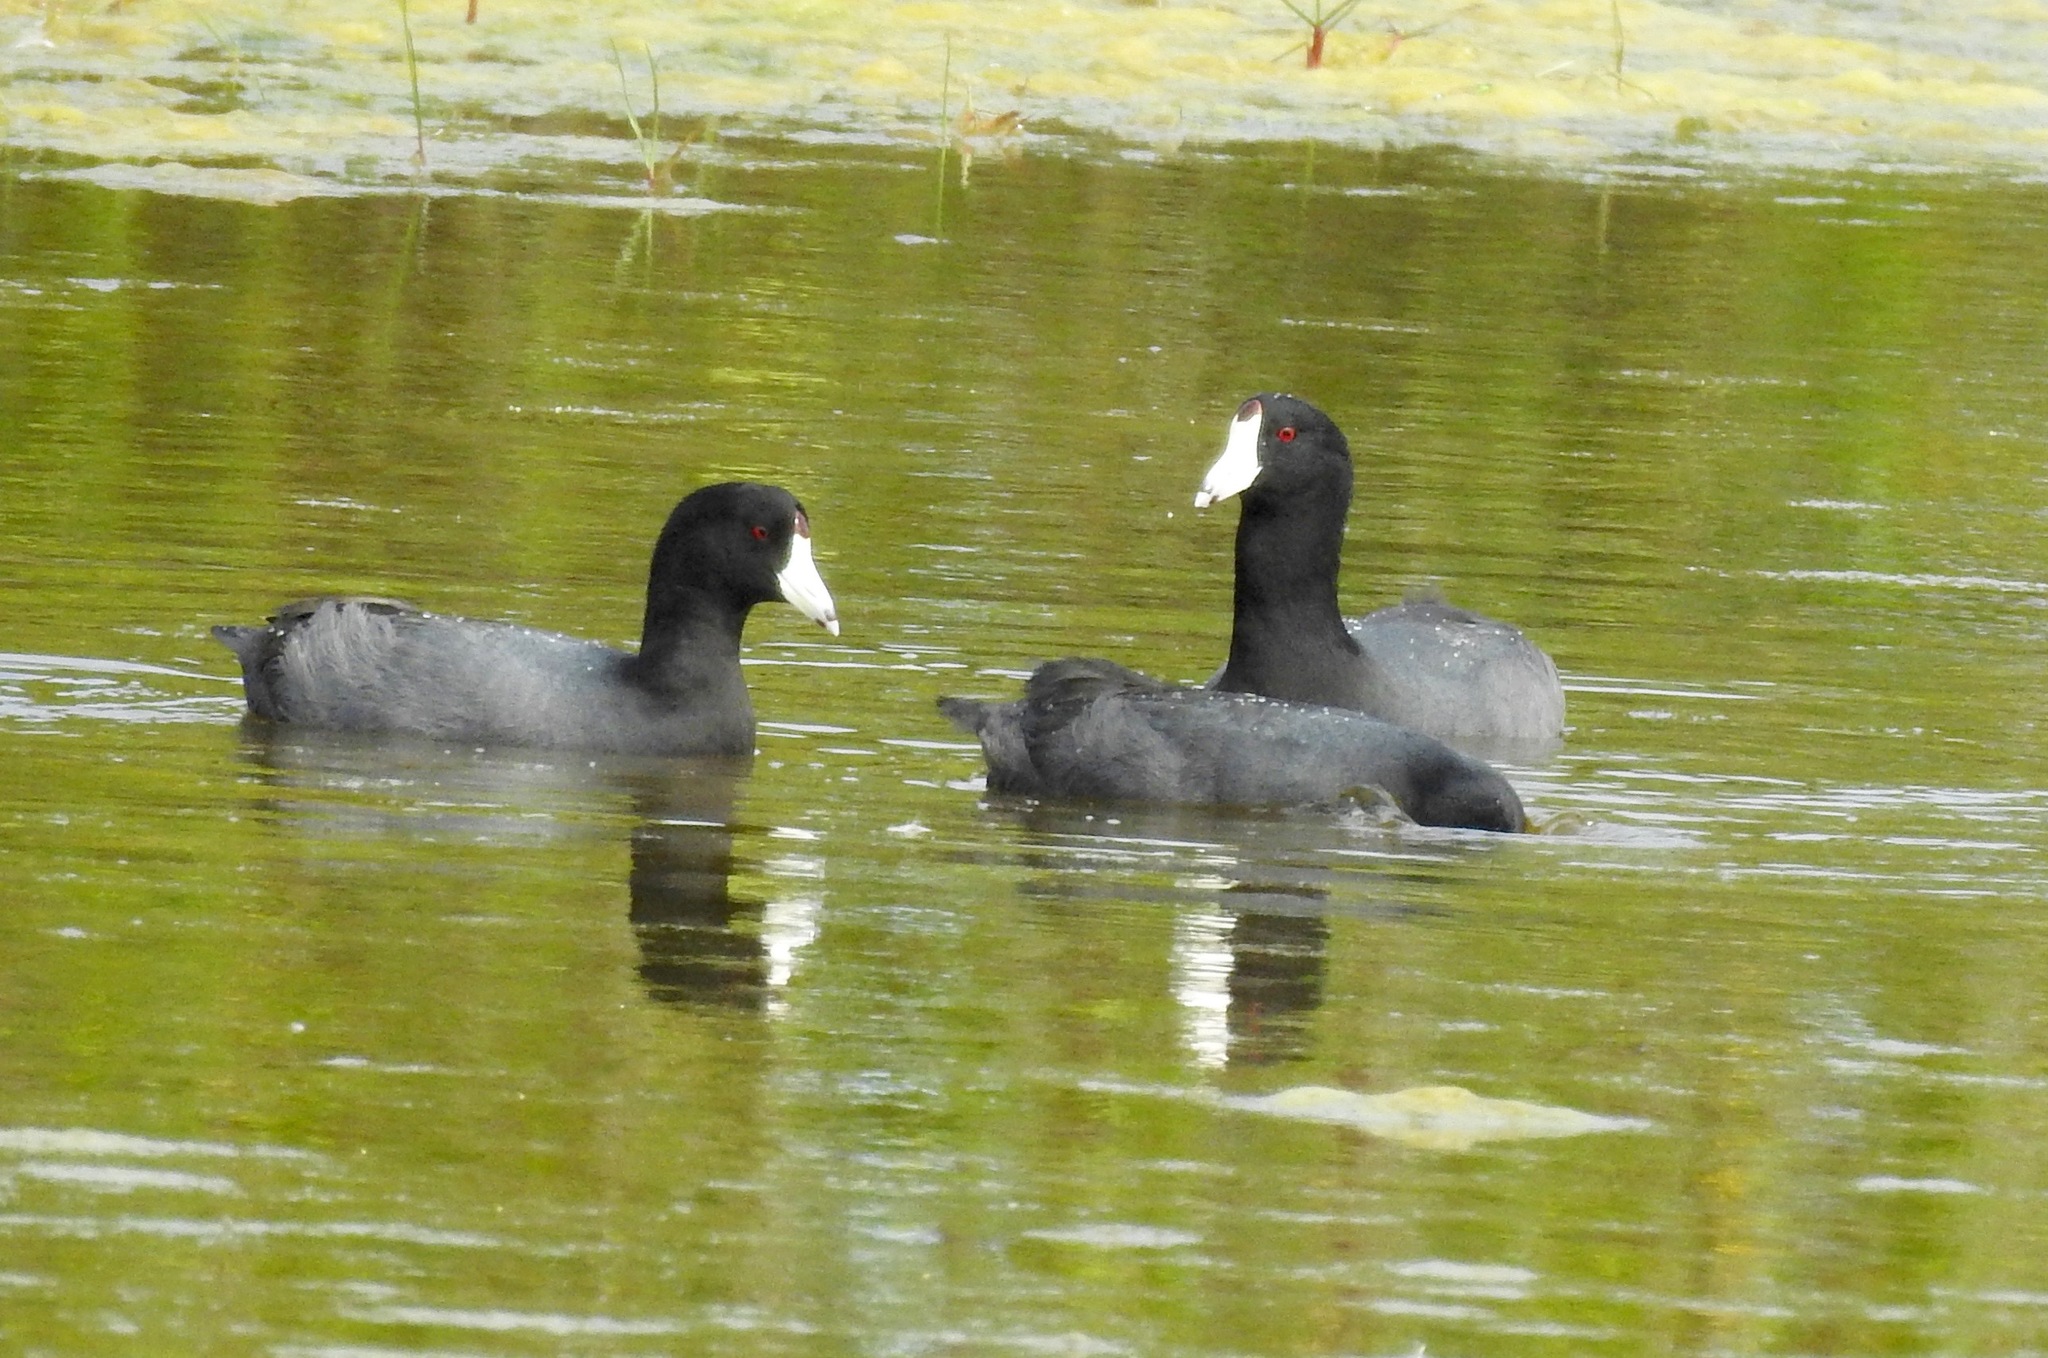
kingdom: Animalia
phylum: Chordata
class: Aves
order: Gruiformes
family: Rallidae
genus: Fulica
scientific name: Fulica americana
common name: American coot
